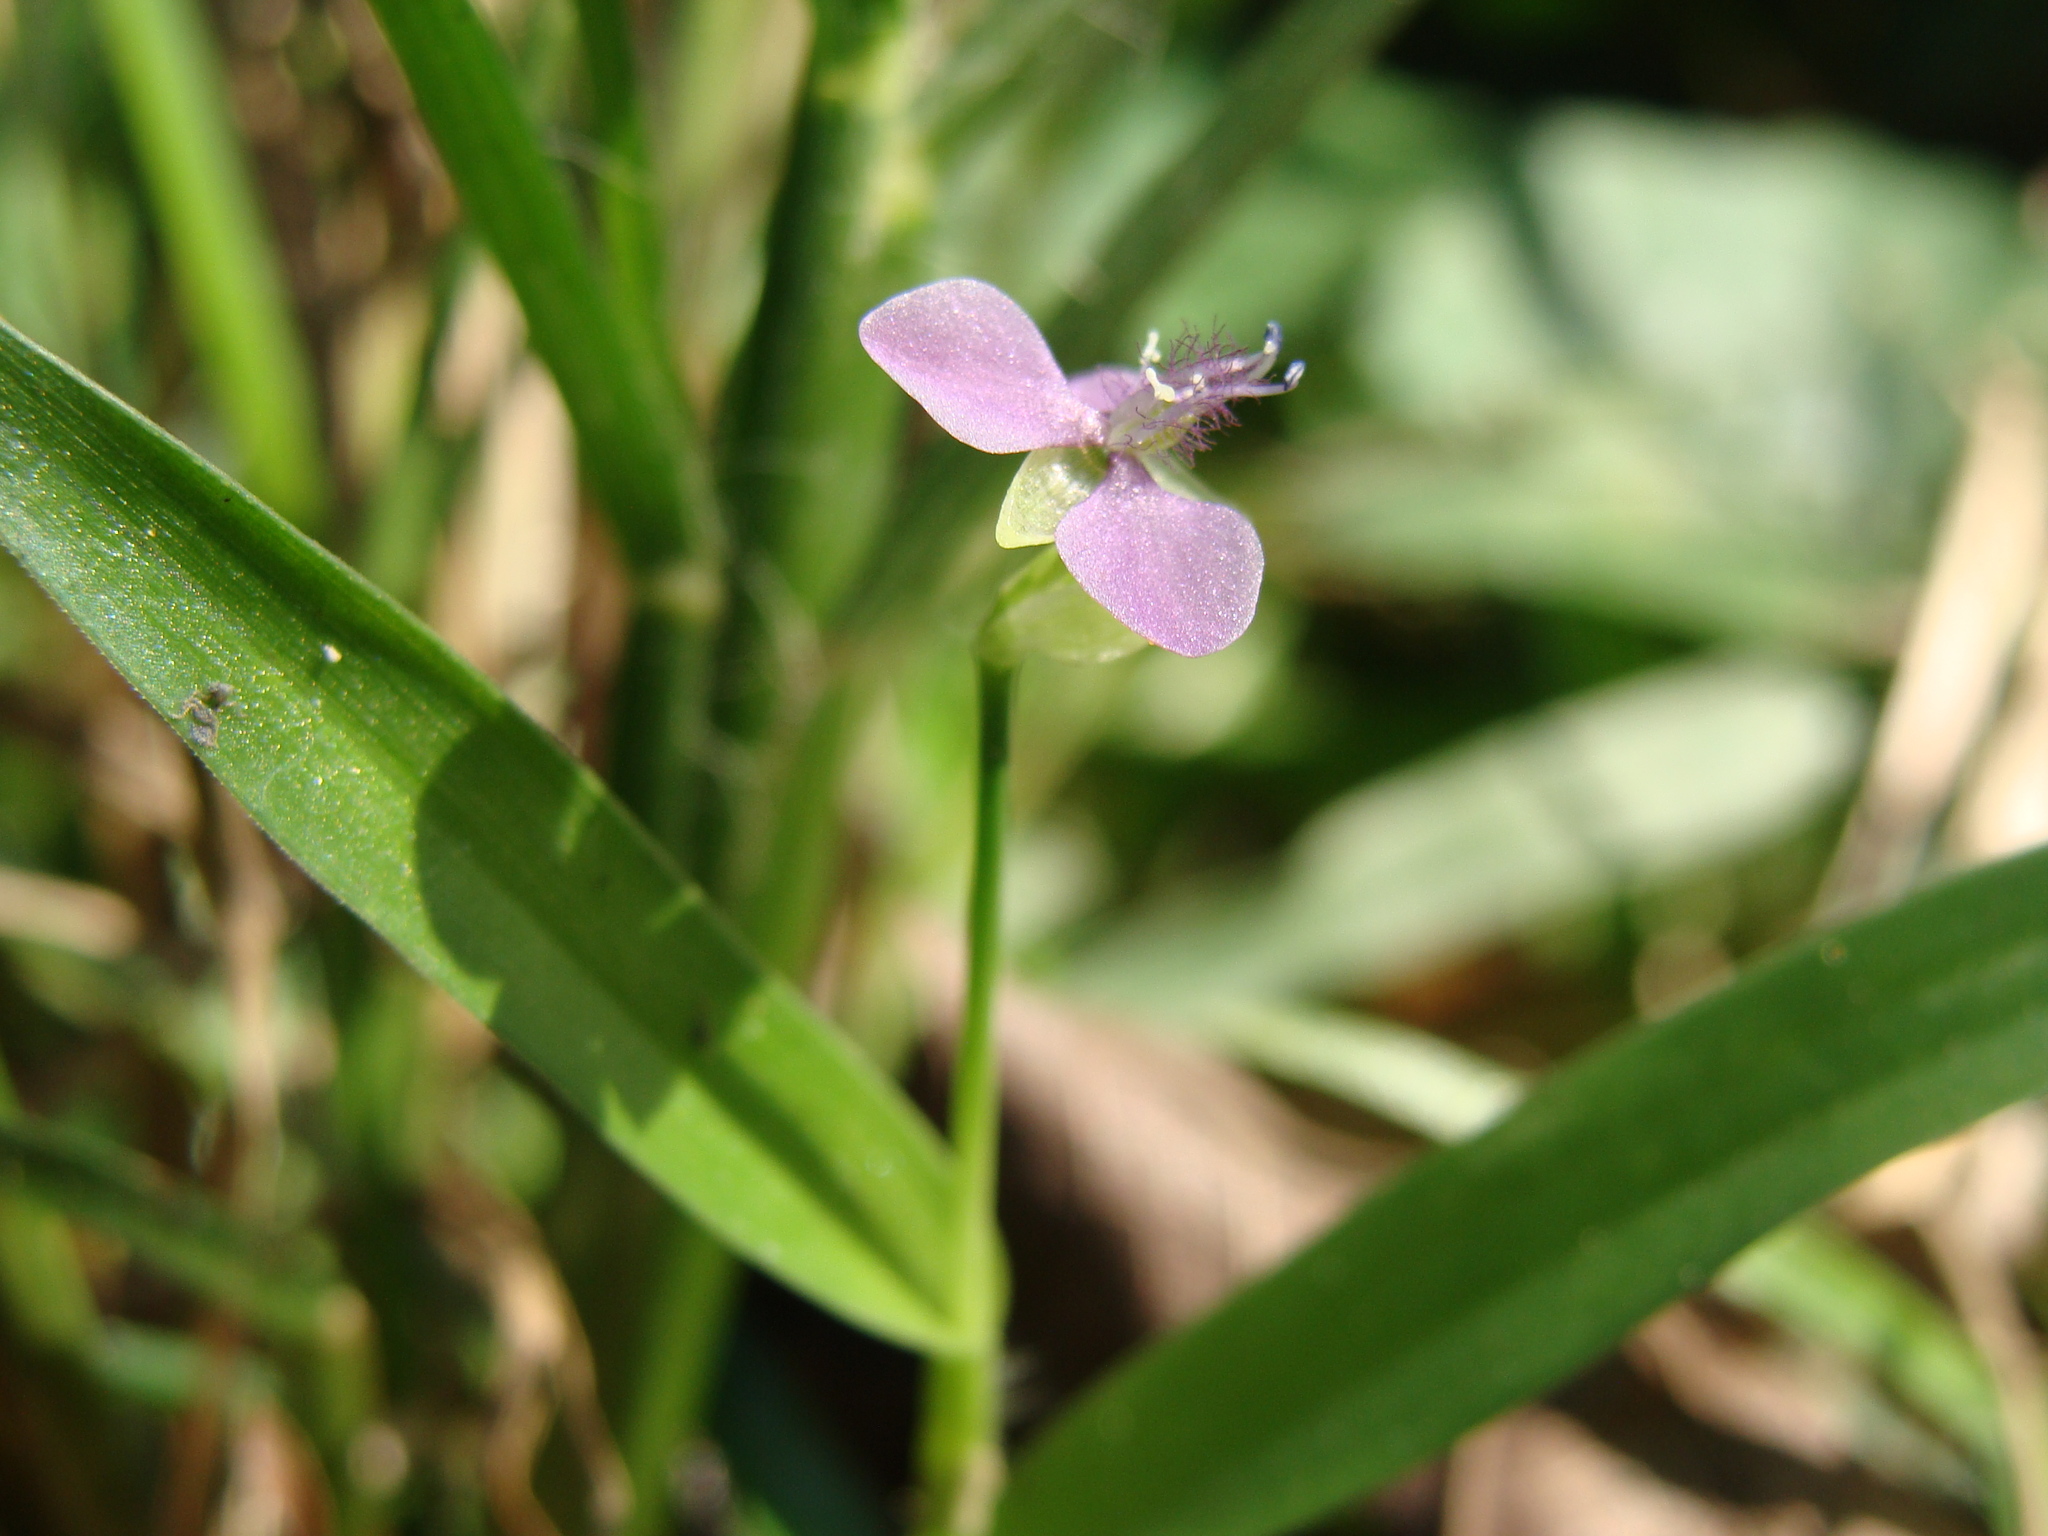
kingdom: Plantae
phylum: Tracheophyta
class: Liliopsida
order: Commelinales
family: Commelinaceae
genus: Murdannia
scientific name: Murdannia nudiflora
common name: Nakedstem dewflower
